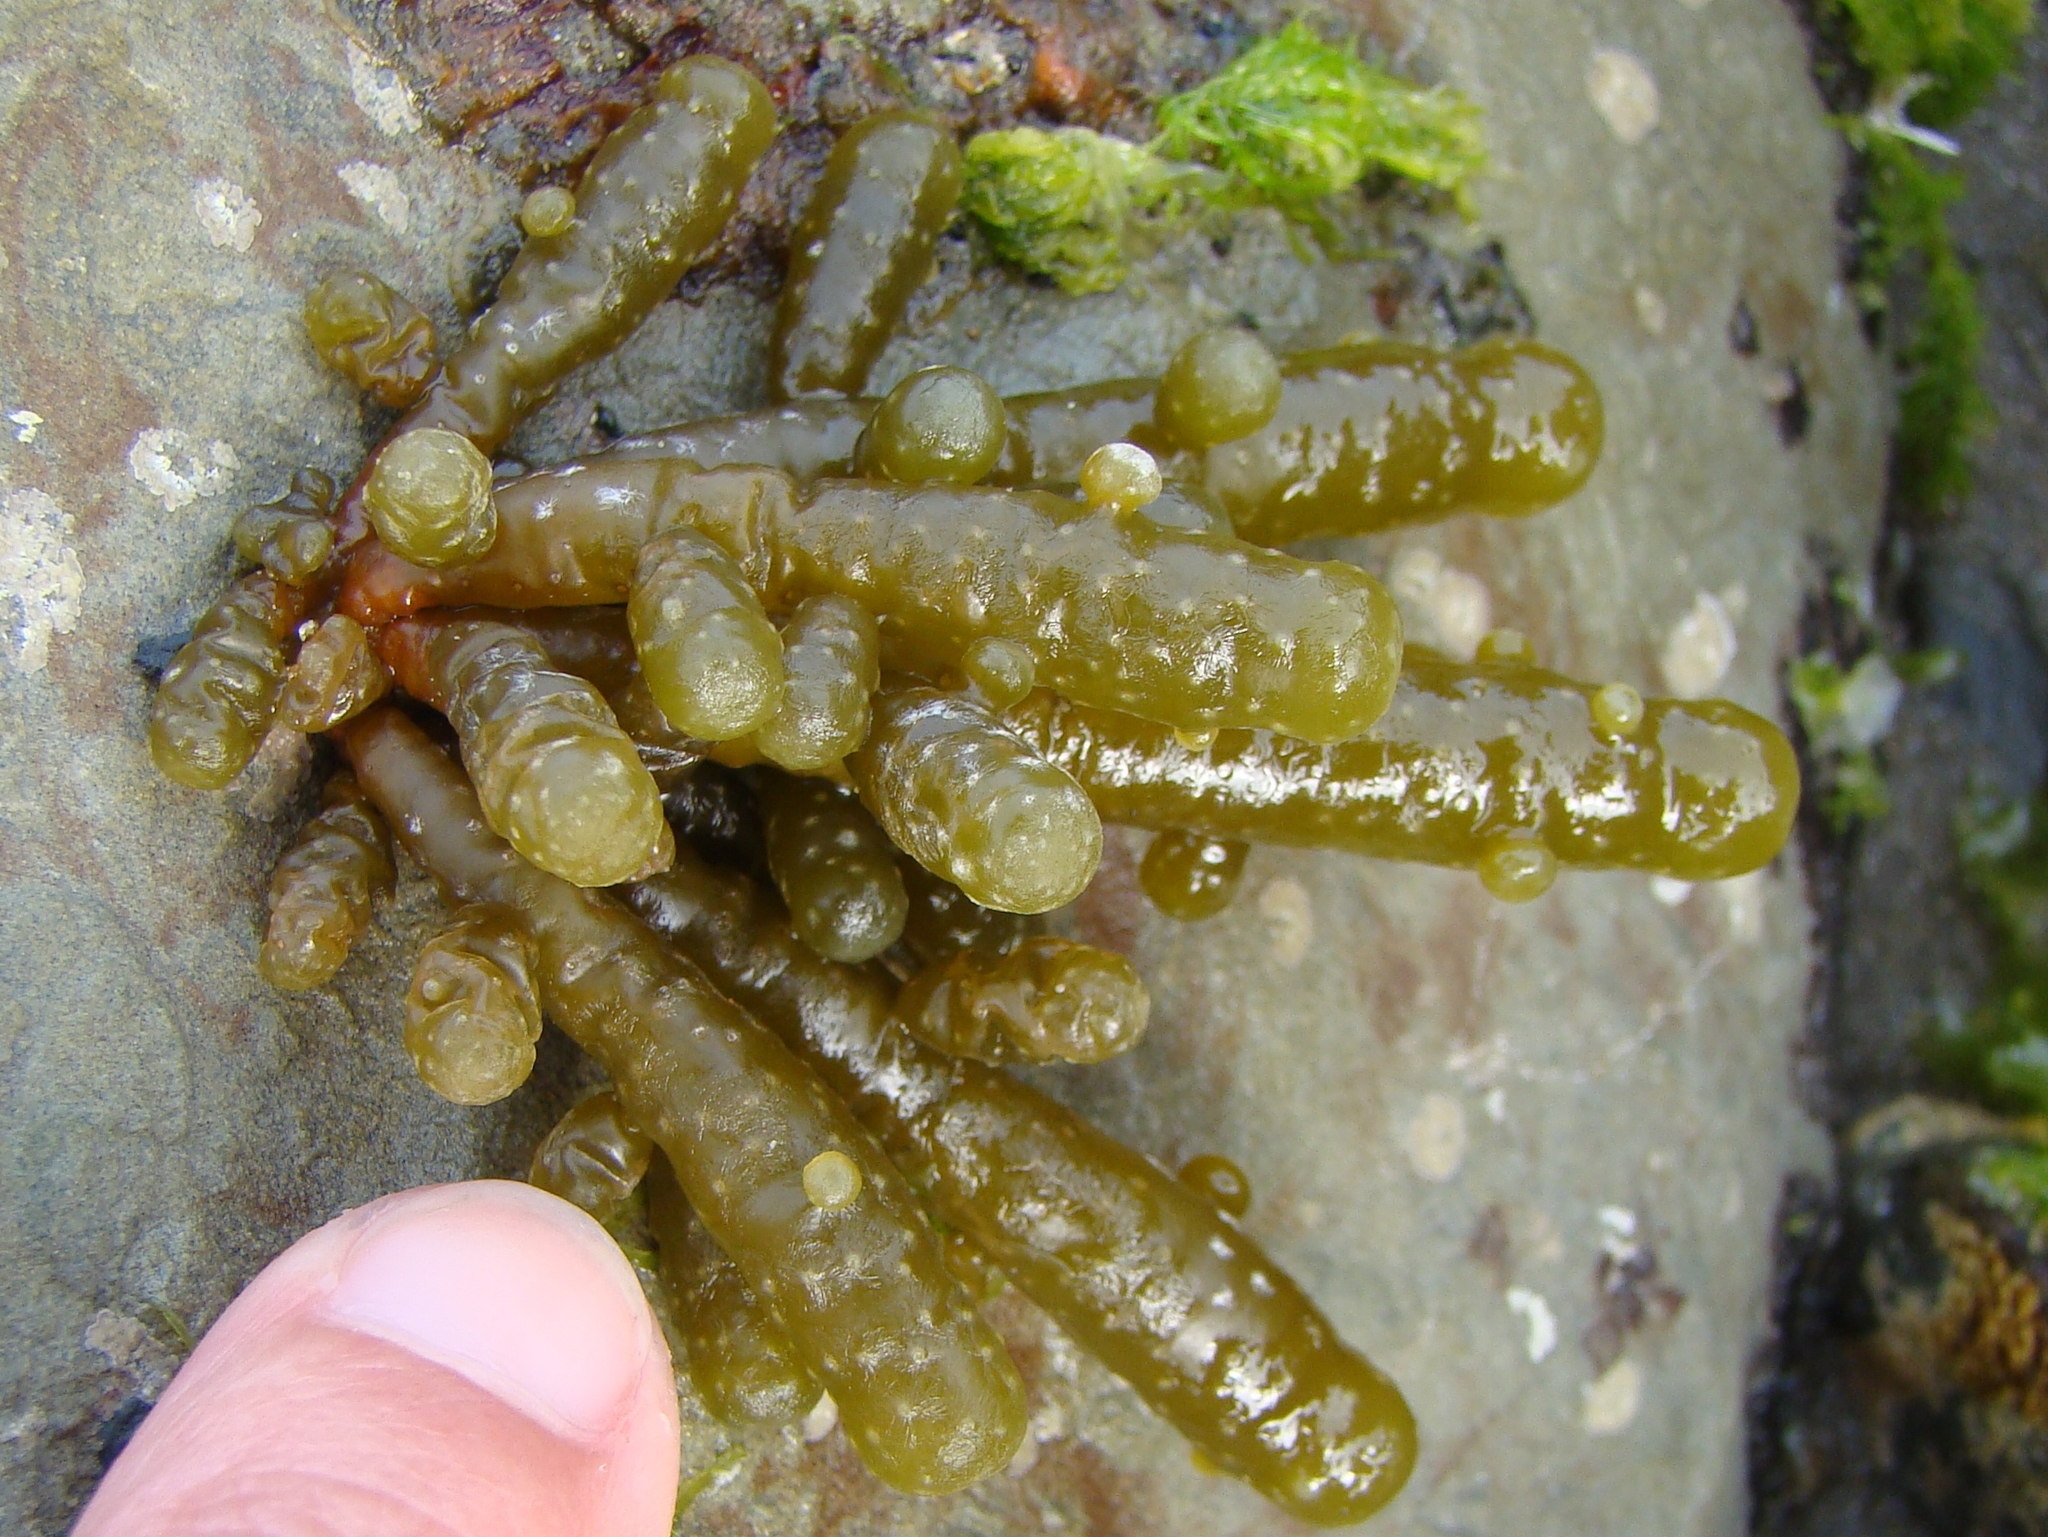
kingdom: Chromista
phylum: Ochrophyta
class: Phaeophyceae
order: Scytothamnales
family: Splachnidiaceae
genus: Splachnidium
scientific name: Splachnidium rugosum
